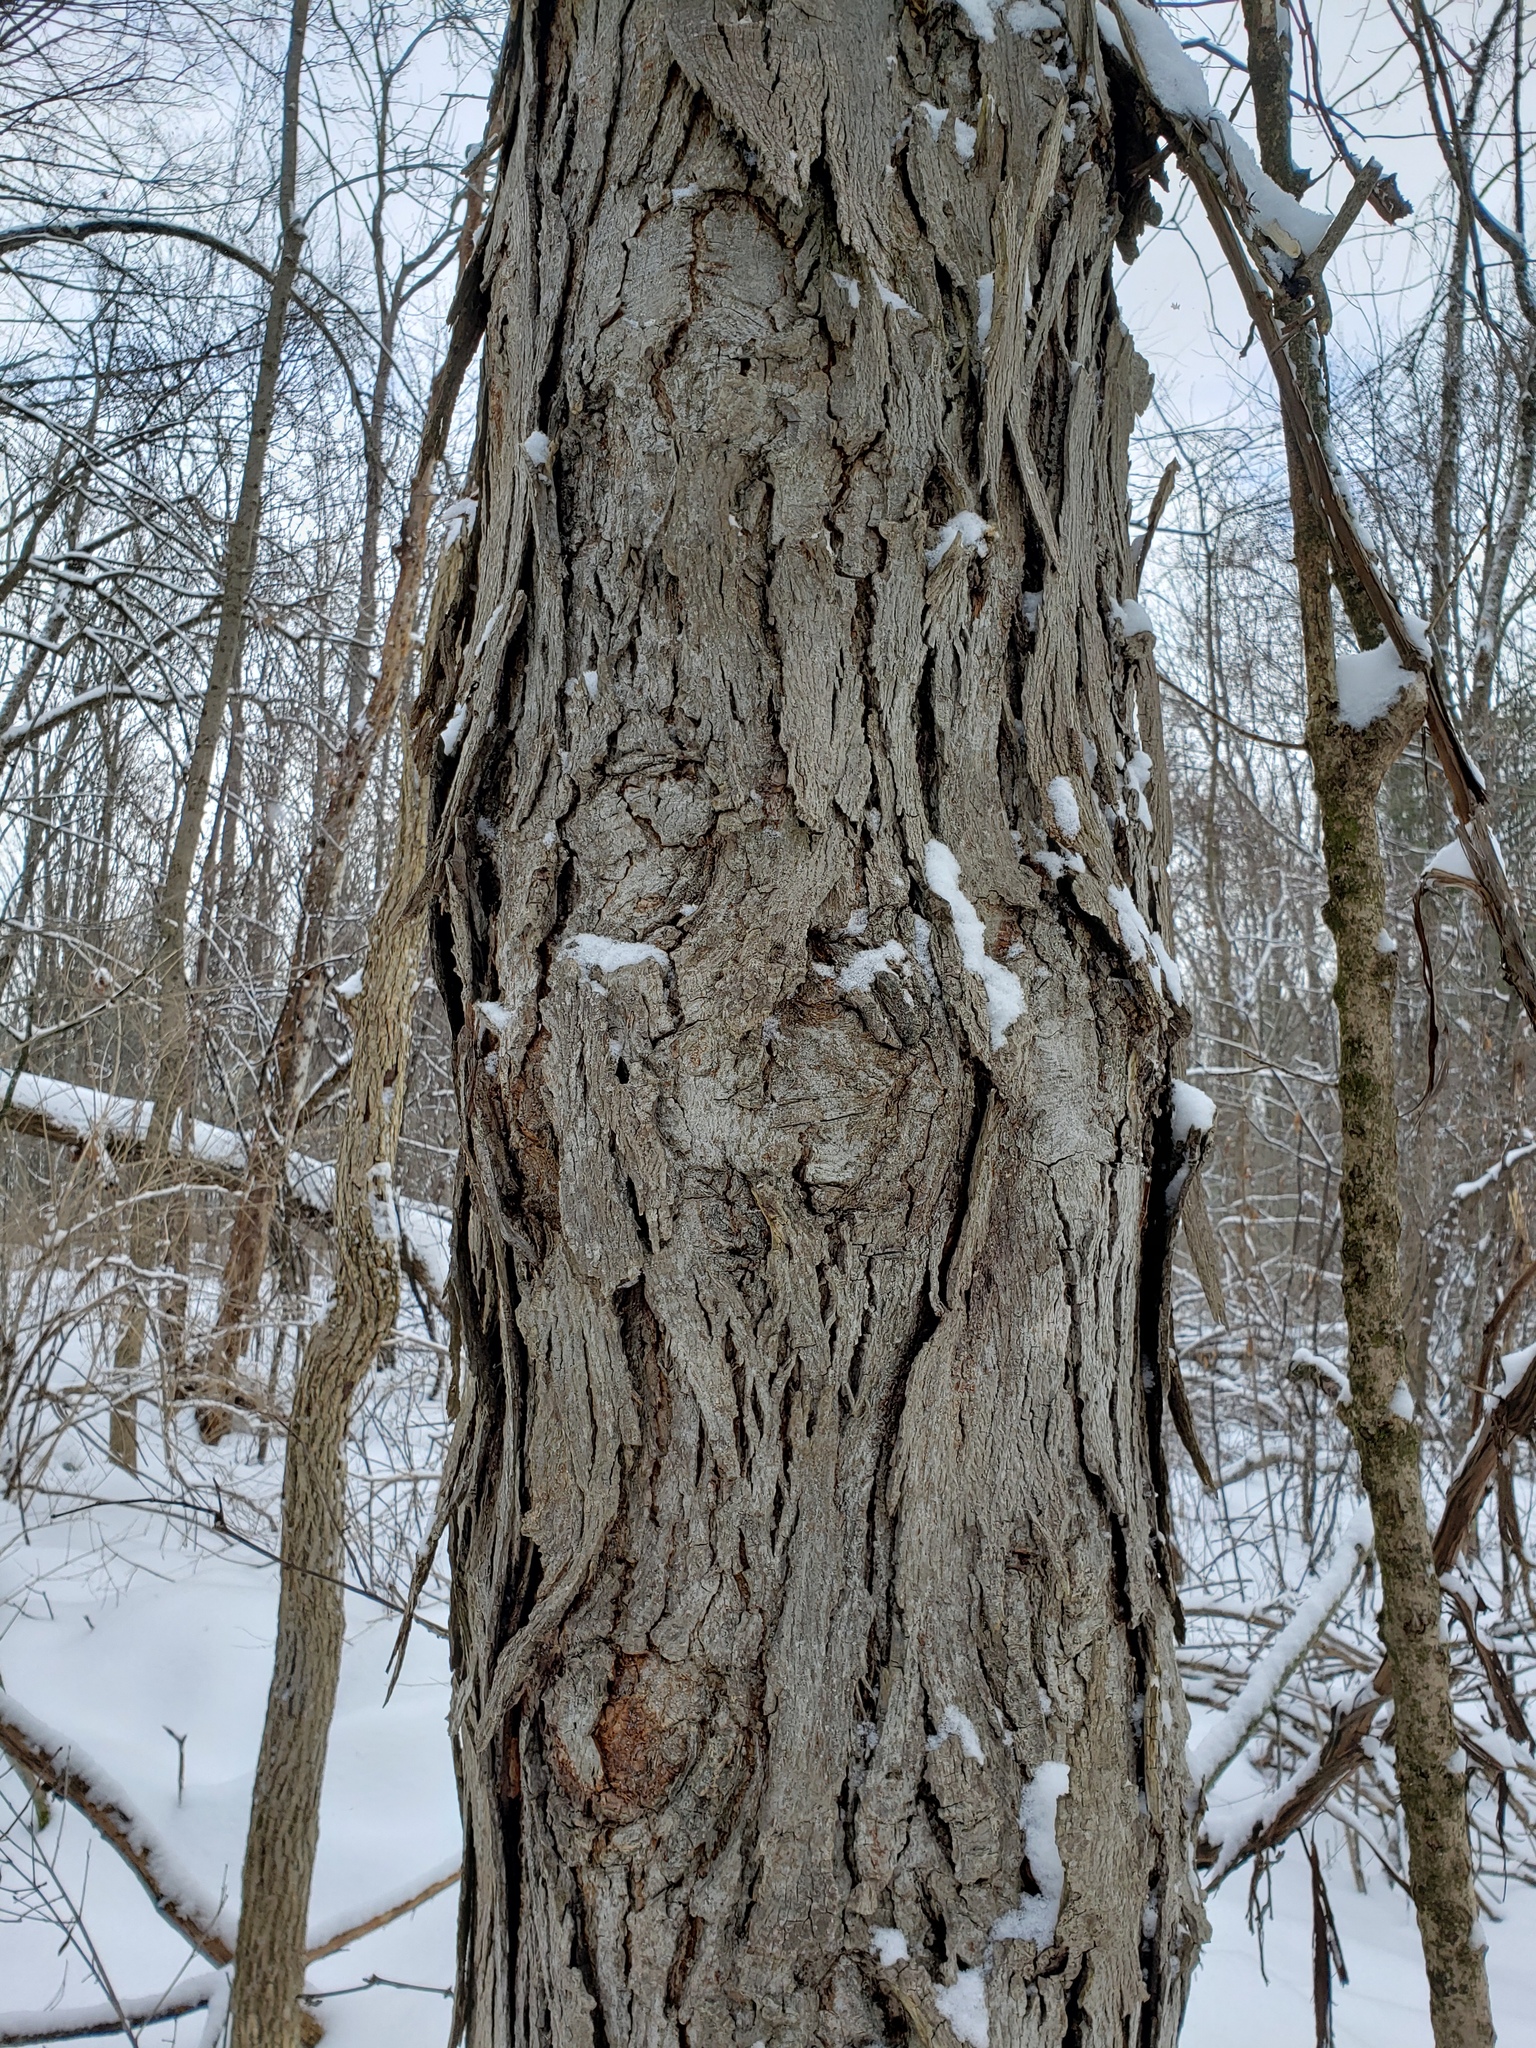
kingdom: Plantae
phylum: Tracheophyta
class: Magnoliopsida
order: Fagales
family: Juglandaceae
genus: Carya
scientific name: Carya ovata
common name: Shagbark hickory
